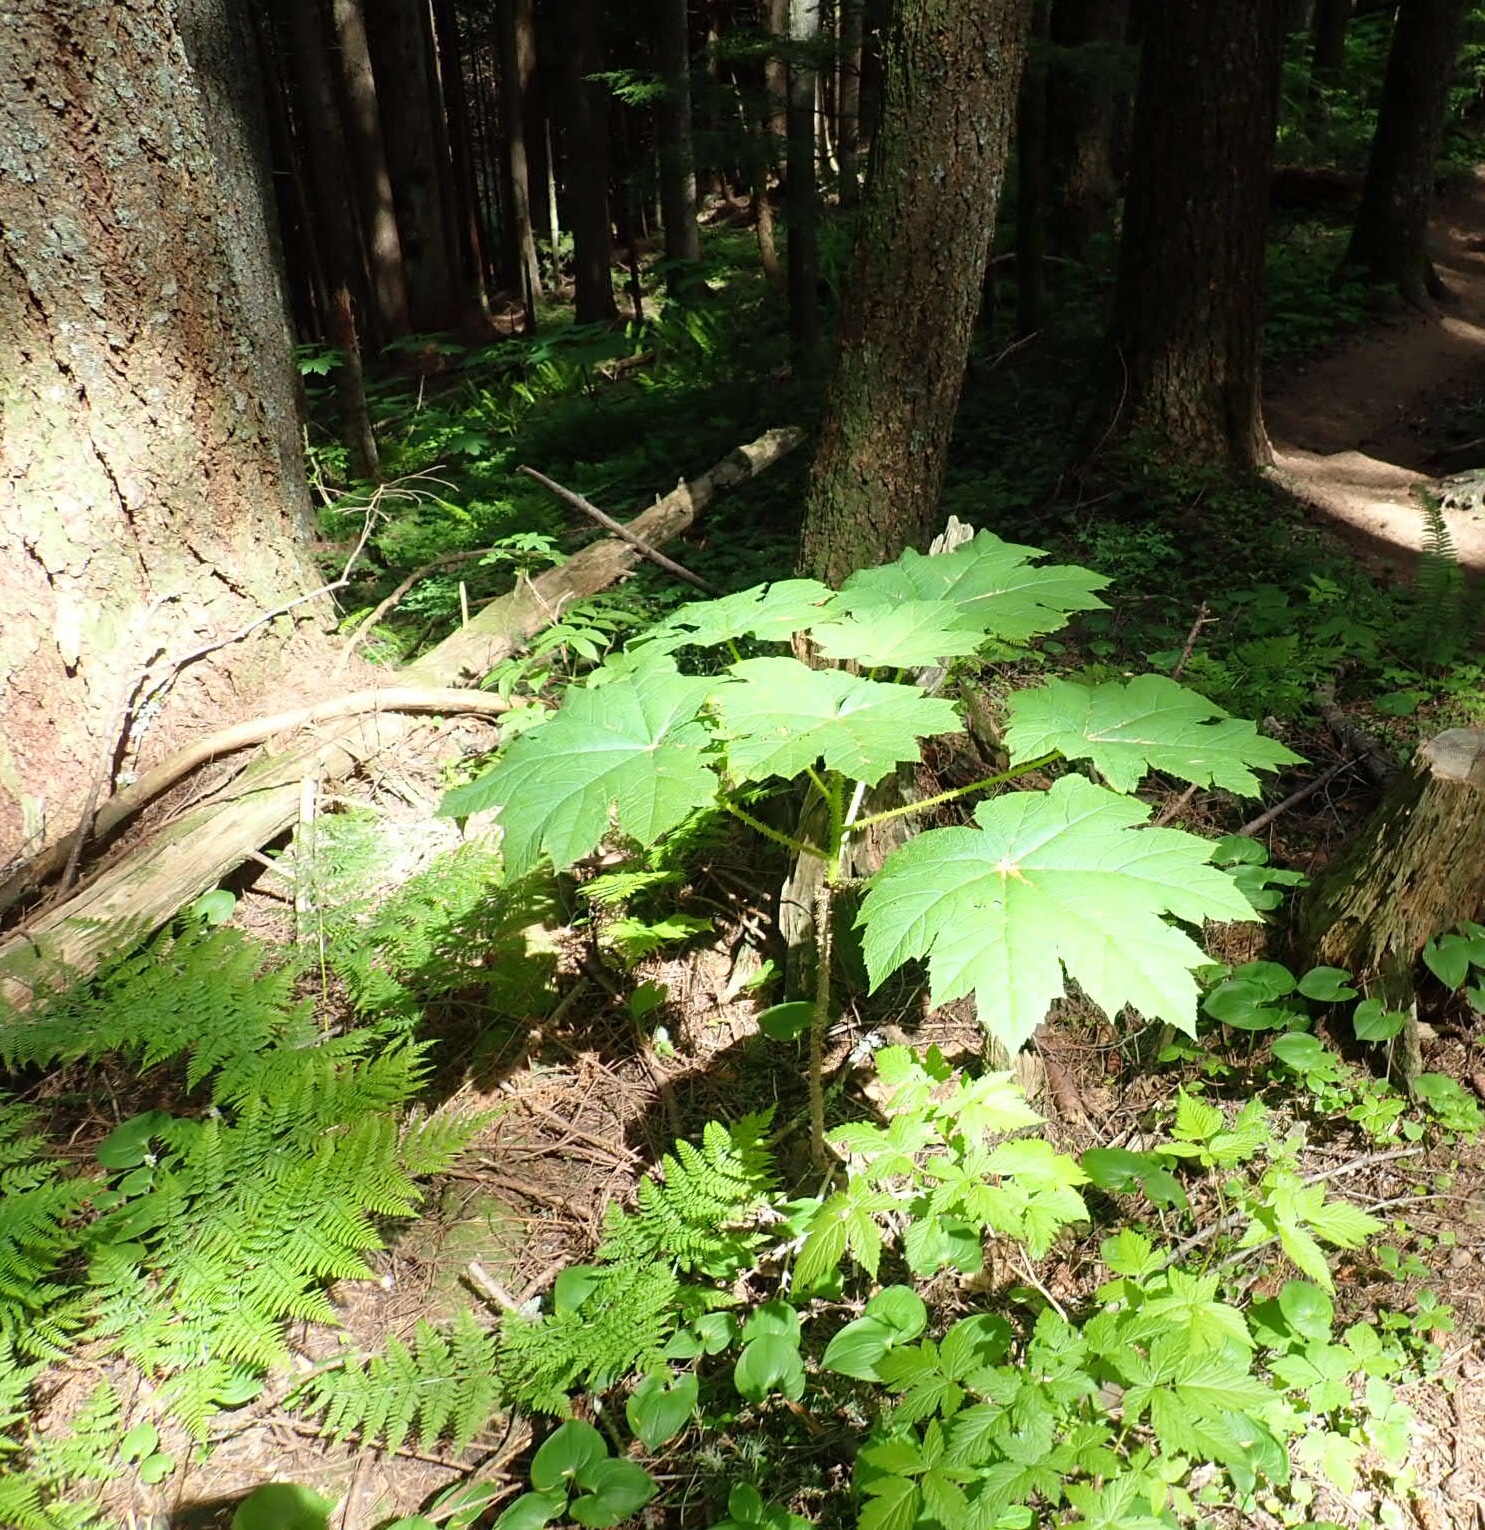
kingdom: Plantae
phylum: Tracheophyta
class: Magnoliopsida
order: Apiales
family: Araliaceae
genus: Oplopanax
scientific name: Oplopanax horridus
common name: Devil's walking-stick
